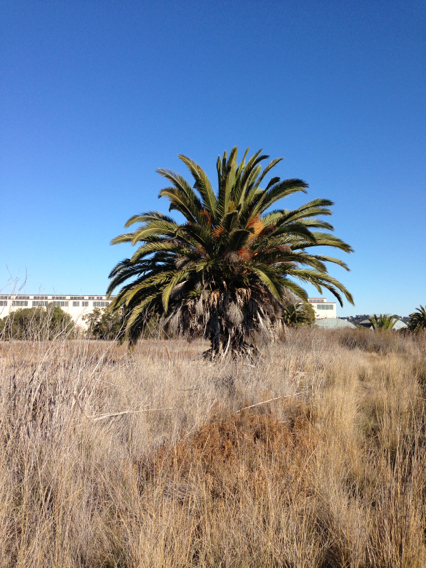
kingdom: Plantae
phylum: Tracheophyta
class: Liliopsida
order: Arecales
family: Arecaceae
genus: Phoenix
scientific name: Phoenix canariensis
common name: Canary island date palm
